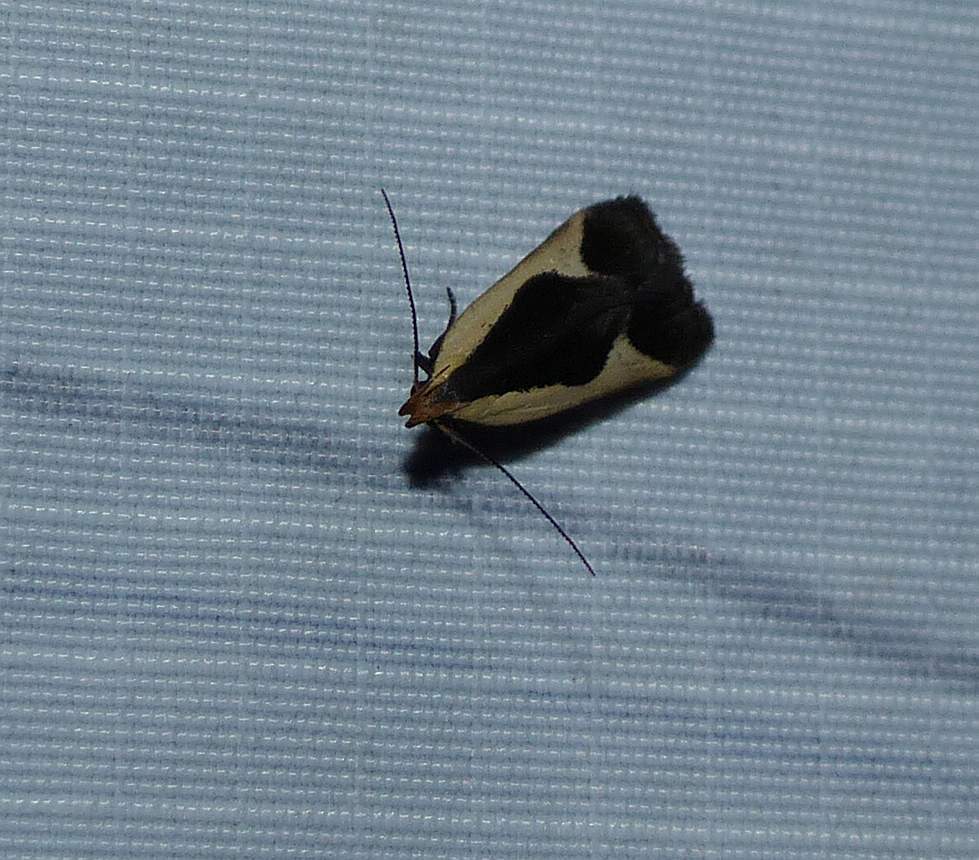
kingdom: Animalia
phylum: Arthropoda
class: Insecta
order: Lepidoptera
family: Gelechiidae
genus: Dichomeris
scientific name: Dichomeris flavocostella
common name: Cream-edged dichomeris moth
